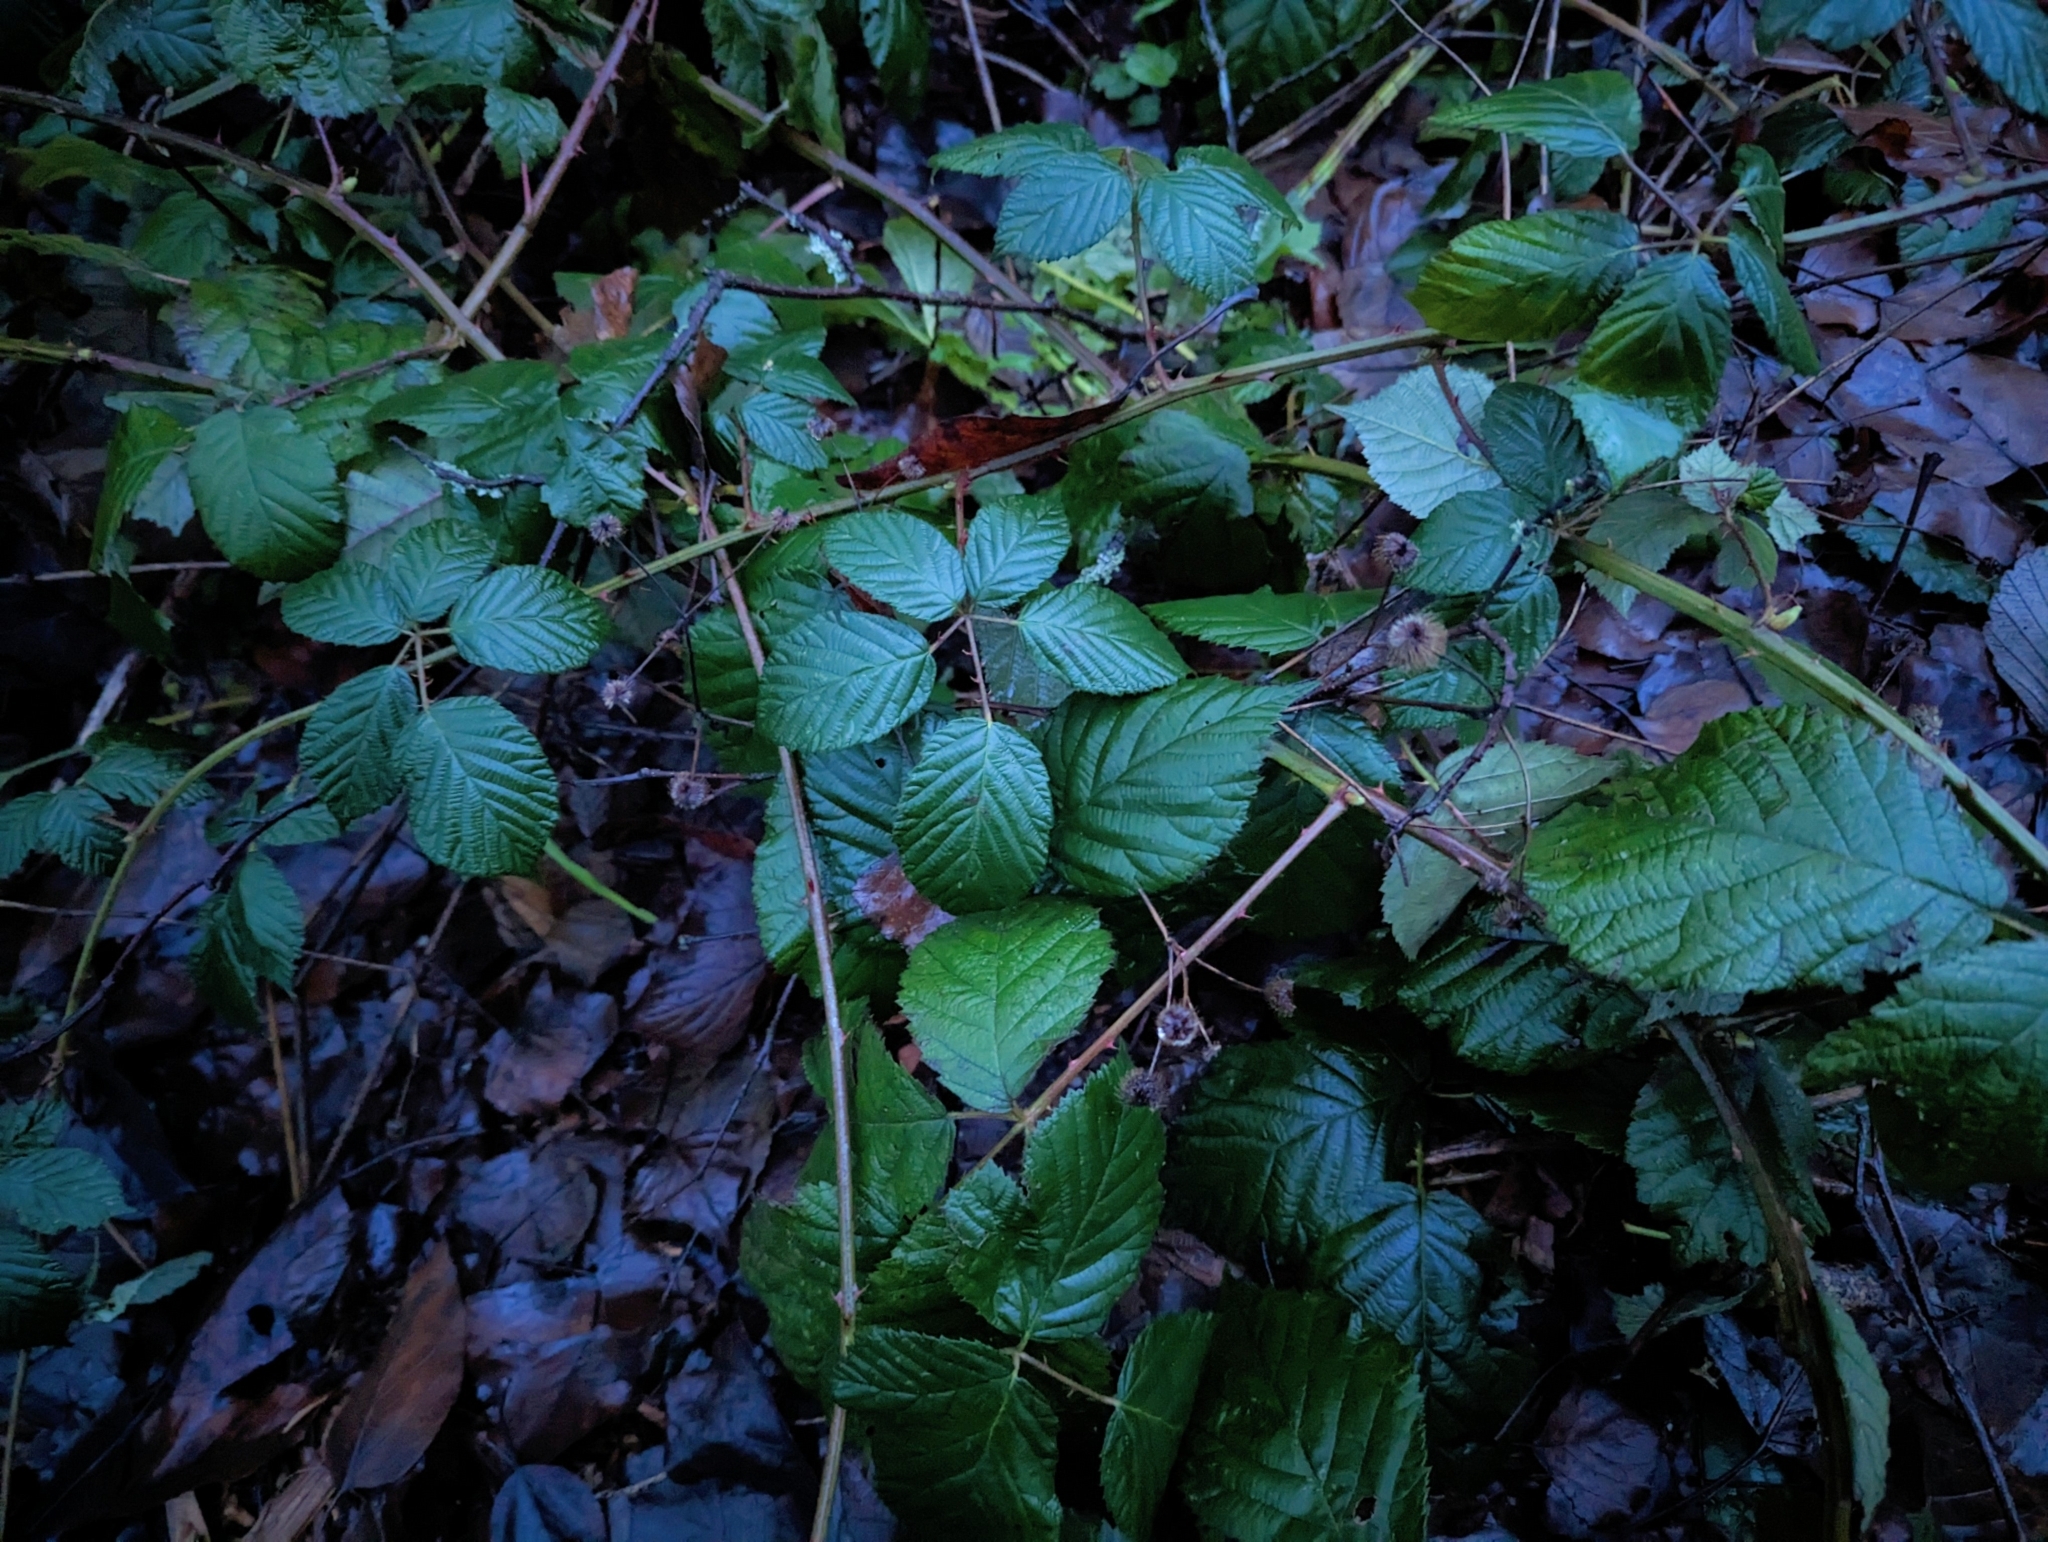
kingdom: Plantae
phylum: Tracheophyta
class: Magnoliopsida
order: Rosales
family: Rosaceae
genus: Rubus
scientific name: Rubus bifrons
